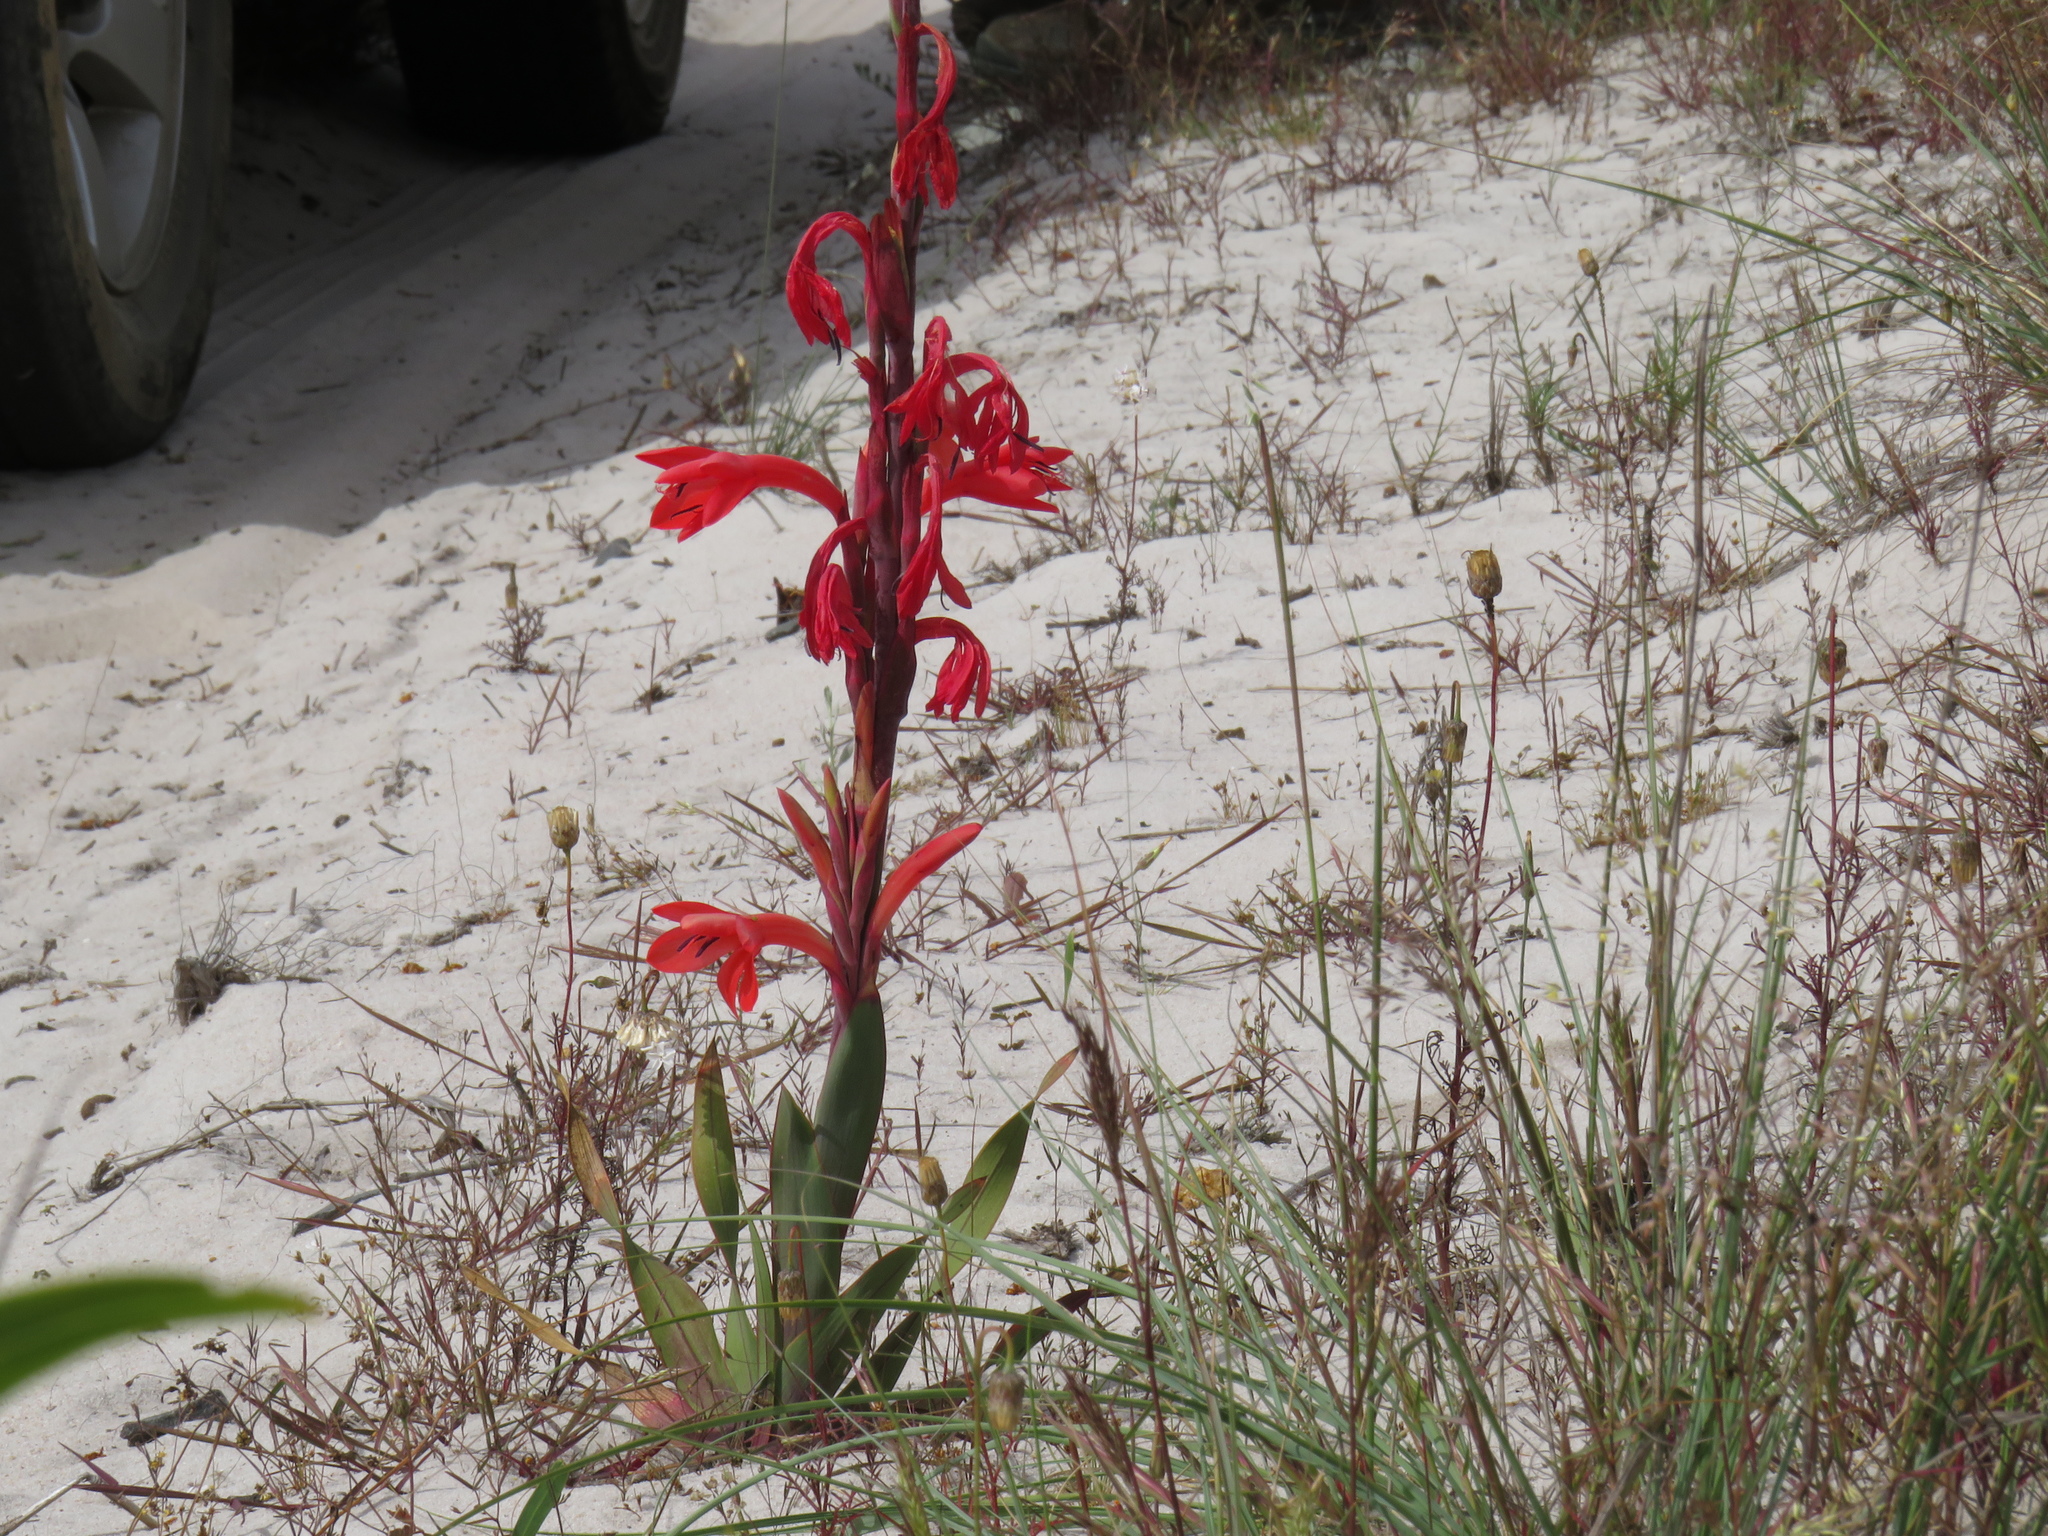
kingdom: Plantae
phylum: Tracheophyta
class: Liliopsida
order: Asparagales
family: Iridaceae
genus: Watsonia
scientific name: Watsonia coccinea
